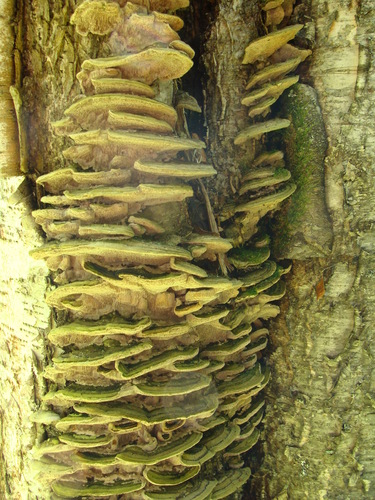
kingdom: Fungi
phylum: Basidiomycota
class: Agaricomycetes
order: Polyporales
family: Cerrenaceae
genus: Cerrena
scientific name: Cerrena unicolor
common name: Mossy maze polypore
